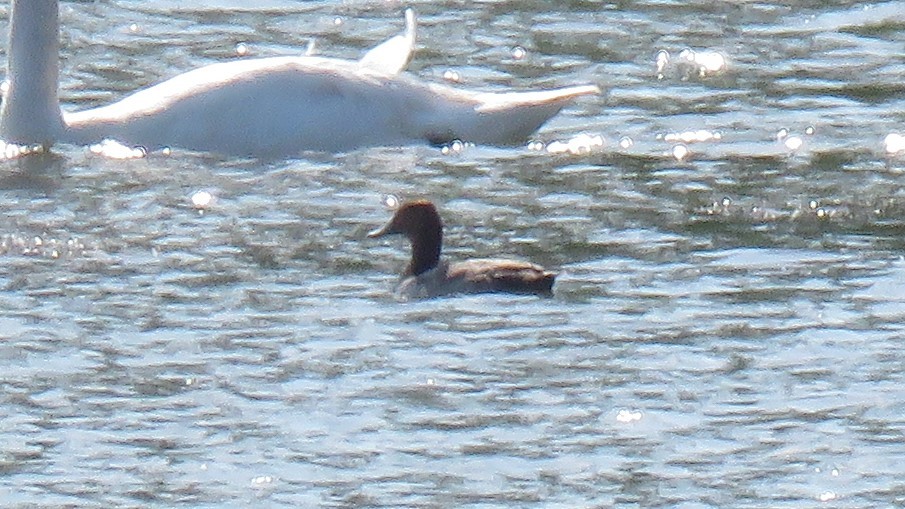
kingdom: Animalia
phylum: Chordata
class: Aves
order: Anseriformes
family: Anatidae
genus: Aythya
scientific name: Aythya americana
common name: Redhead
